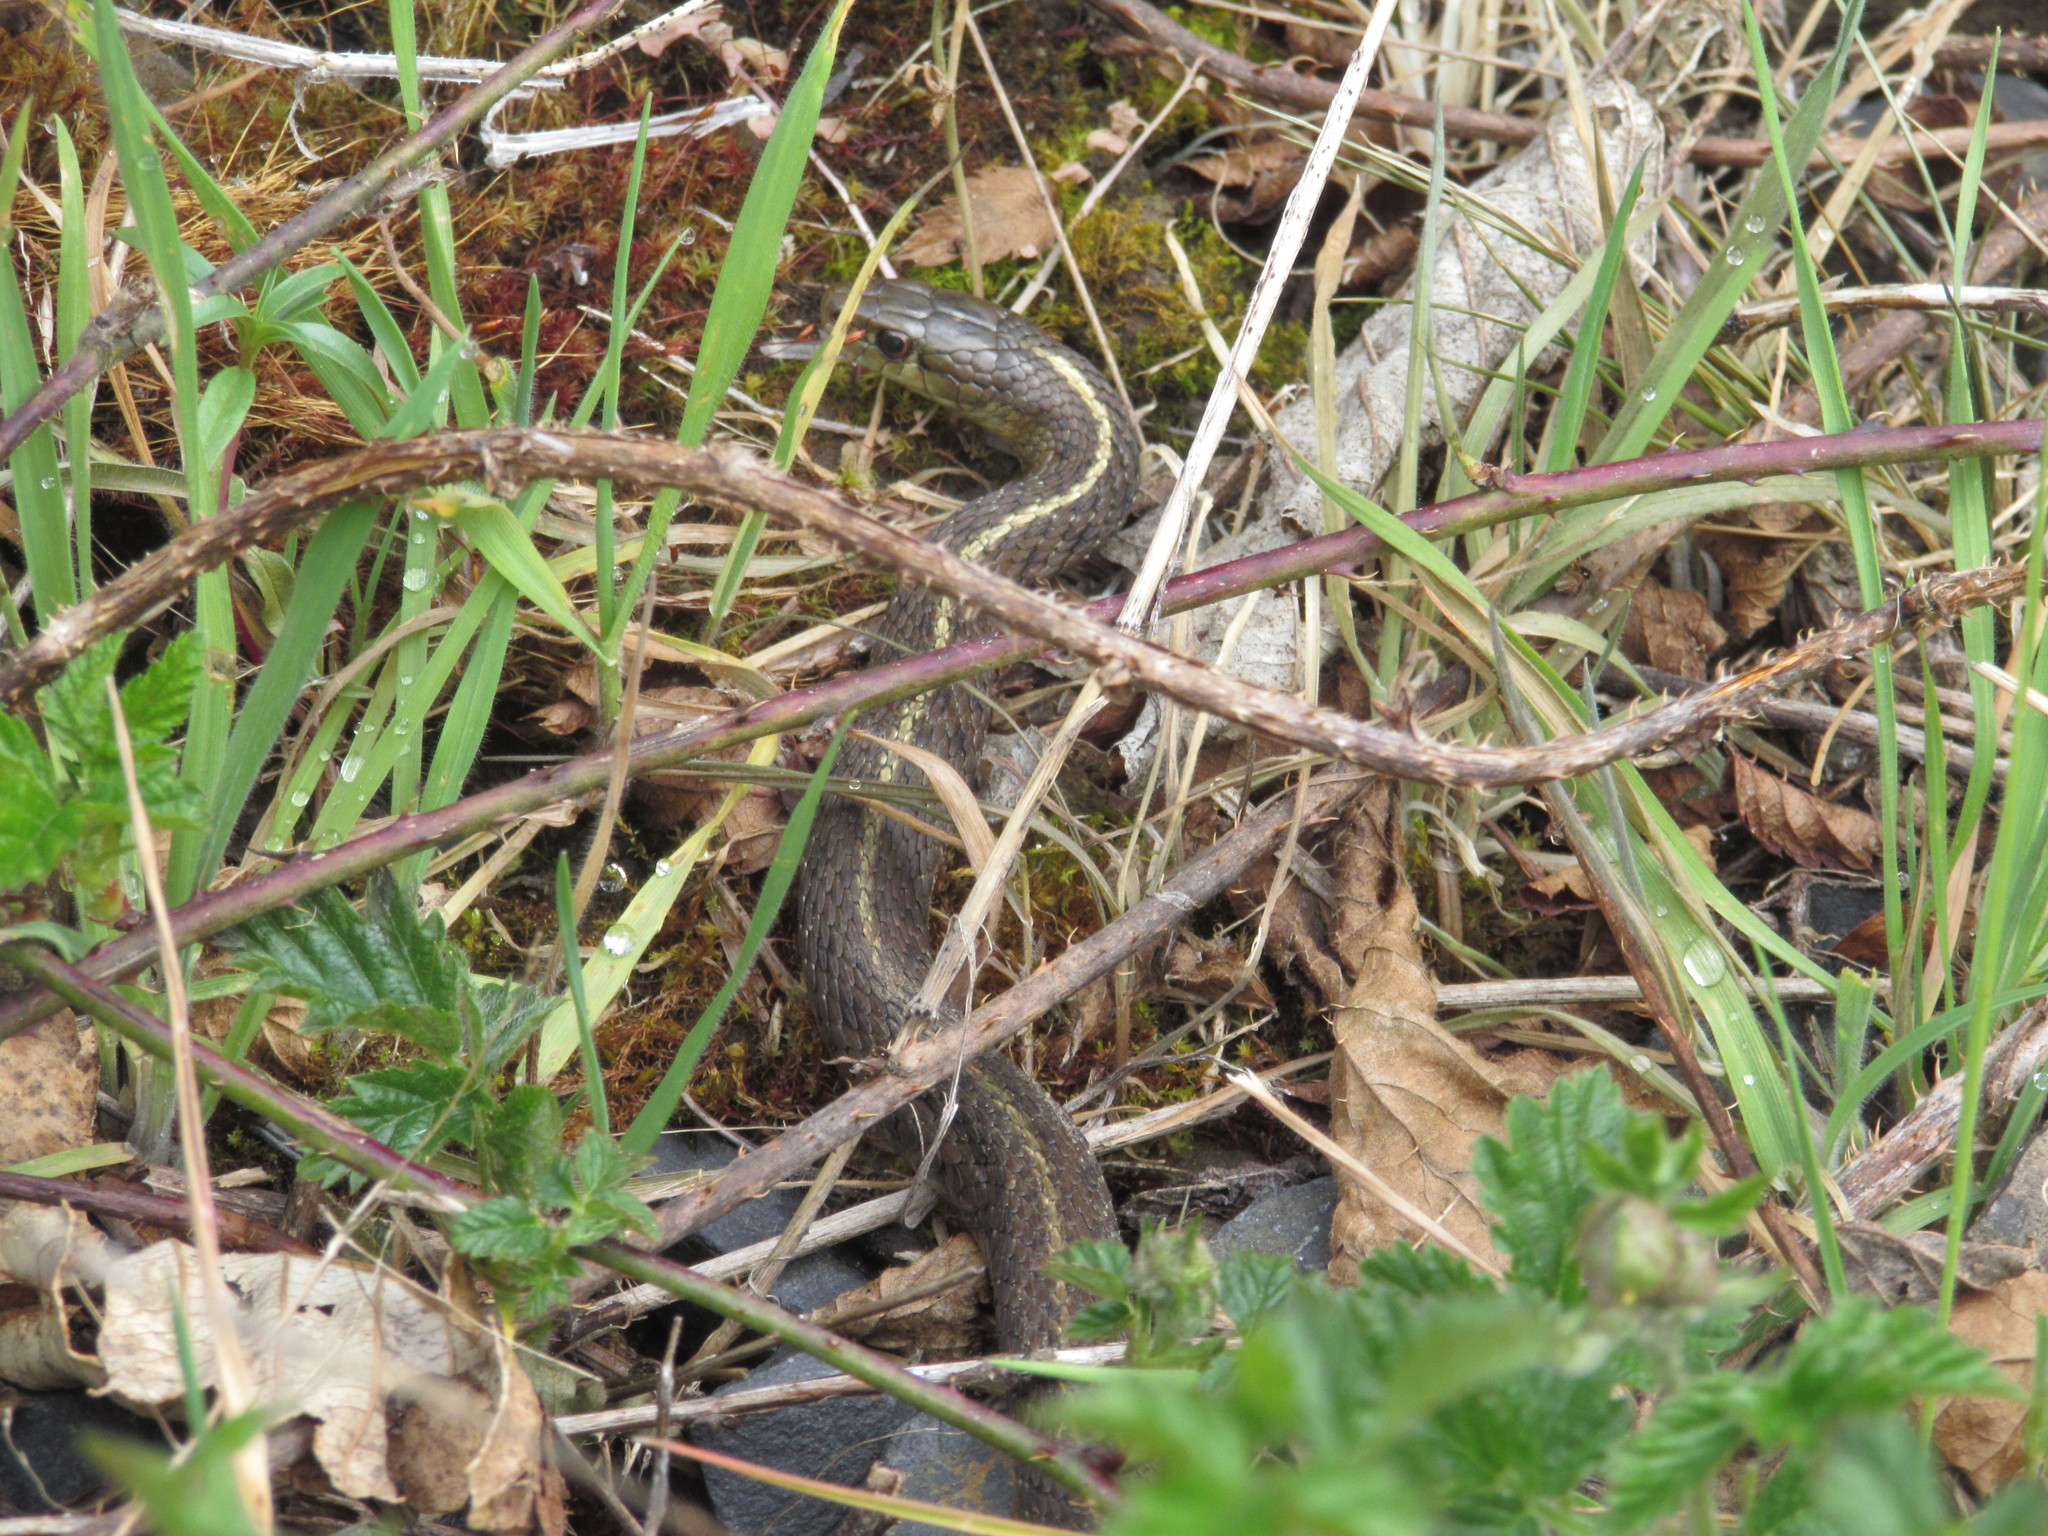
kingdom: Animalia
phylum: Chordata
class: Squamata
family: Colubridae
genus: Thamnophis
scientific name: Thamnophis ordinoides
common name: Northwestern garter snake
